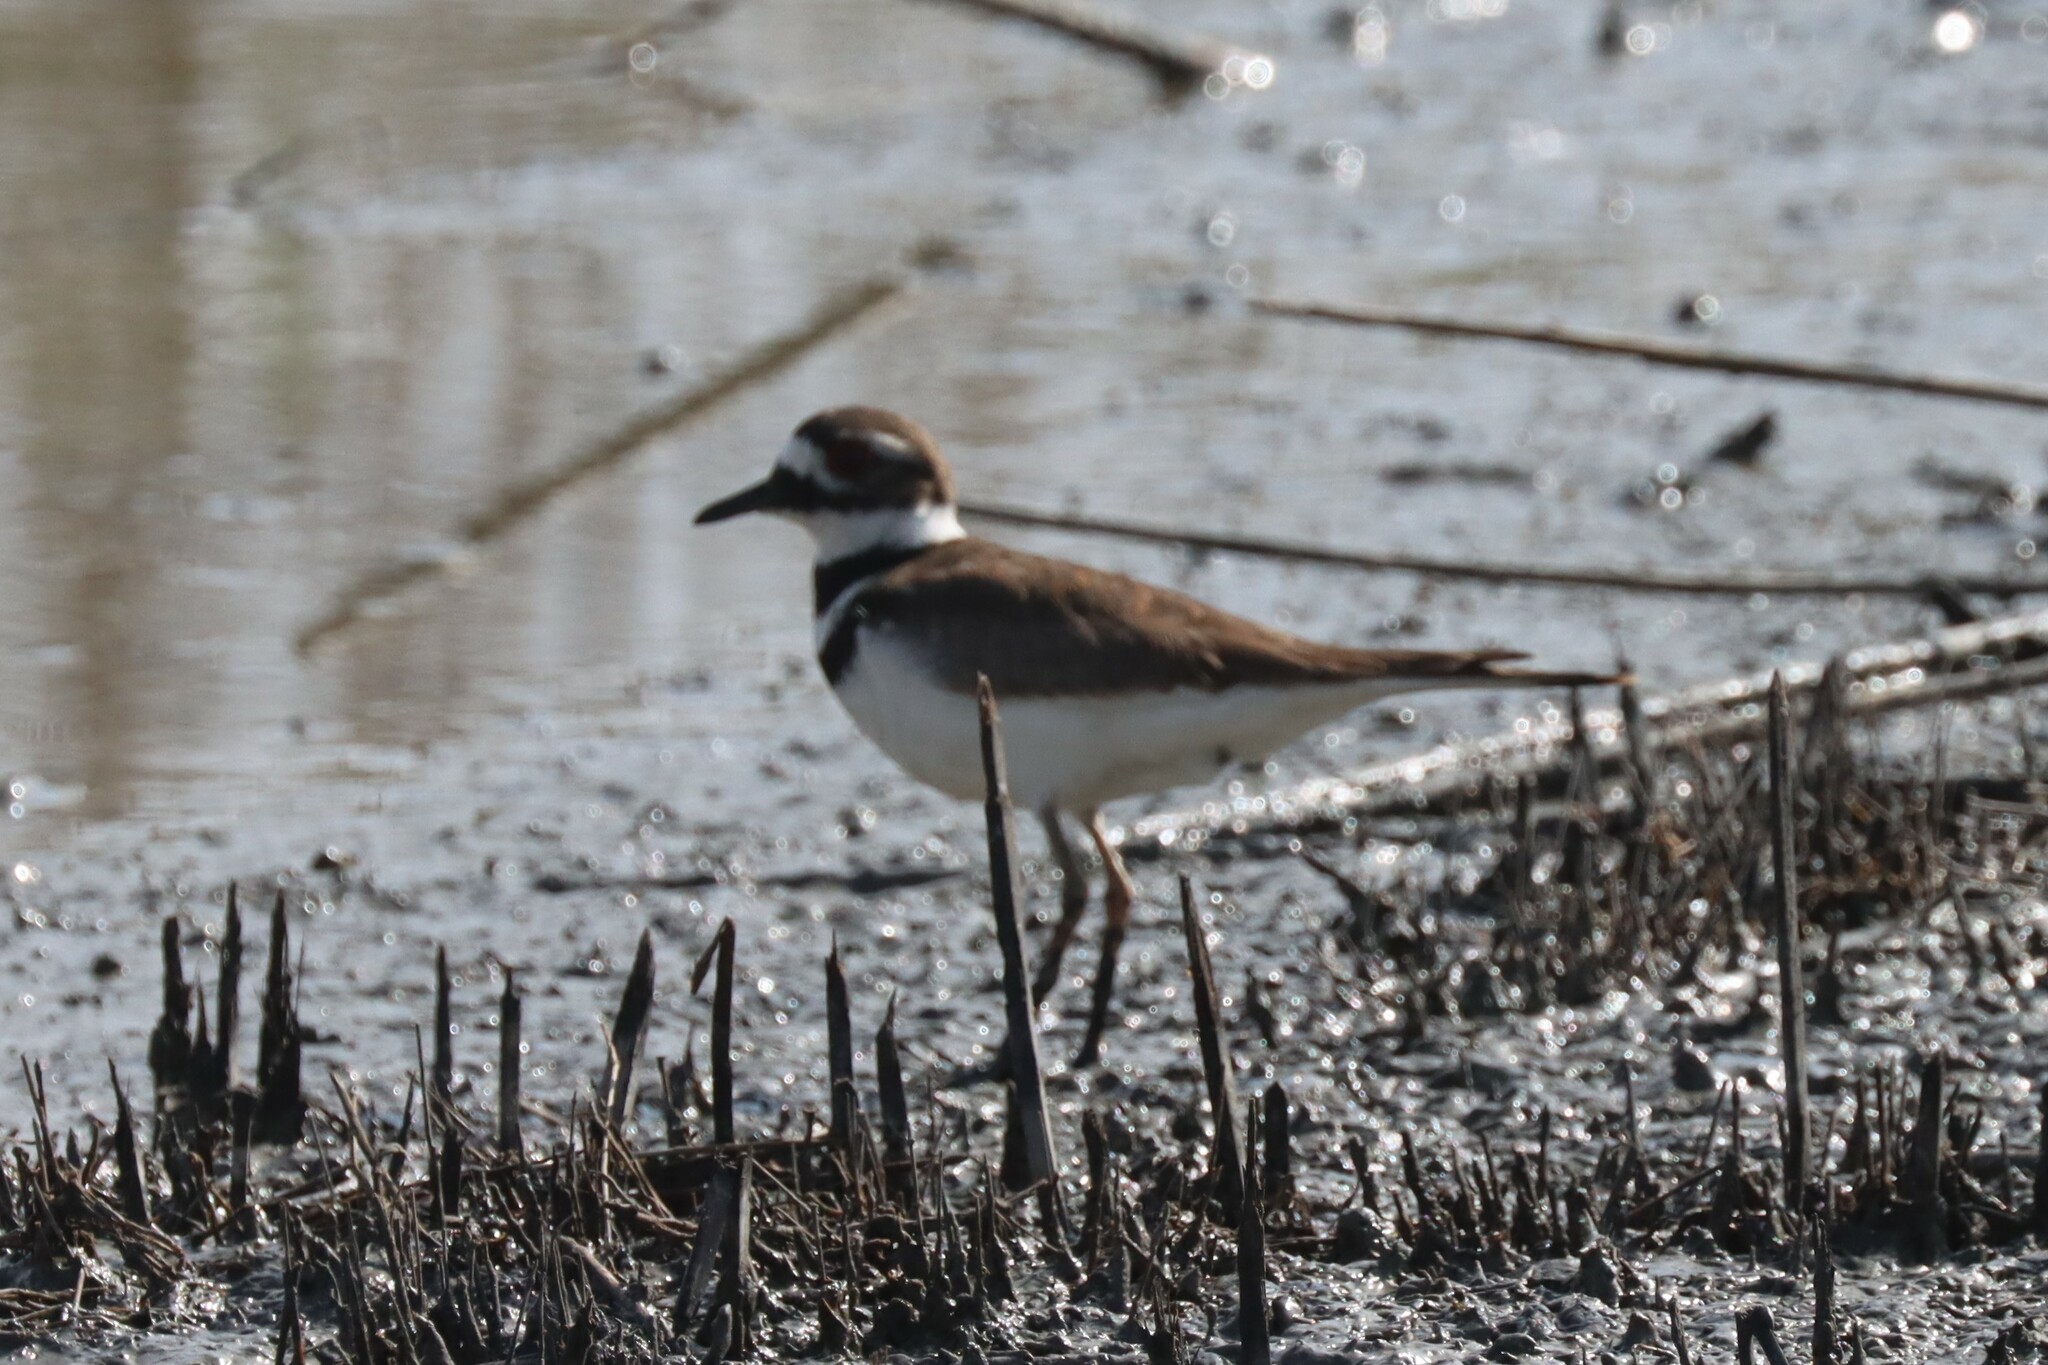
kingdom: Animalia
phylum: Chordata
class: Aves
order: Charadriiformes
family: Charadriidae
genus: Charadrius
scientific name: Charadrius vociferus
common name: Killdeer
